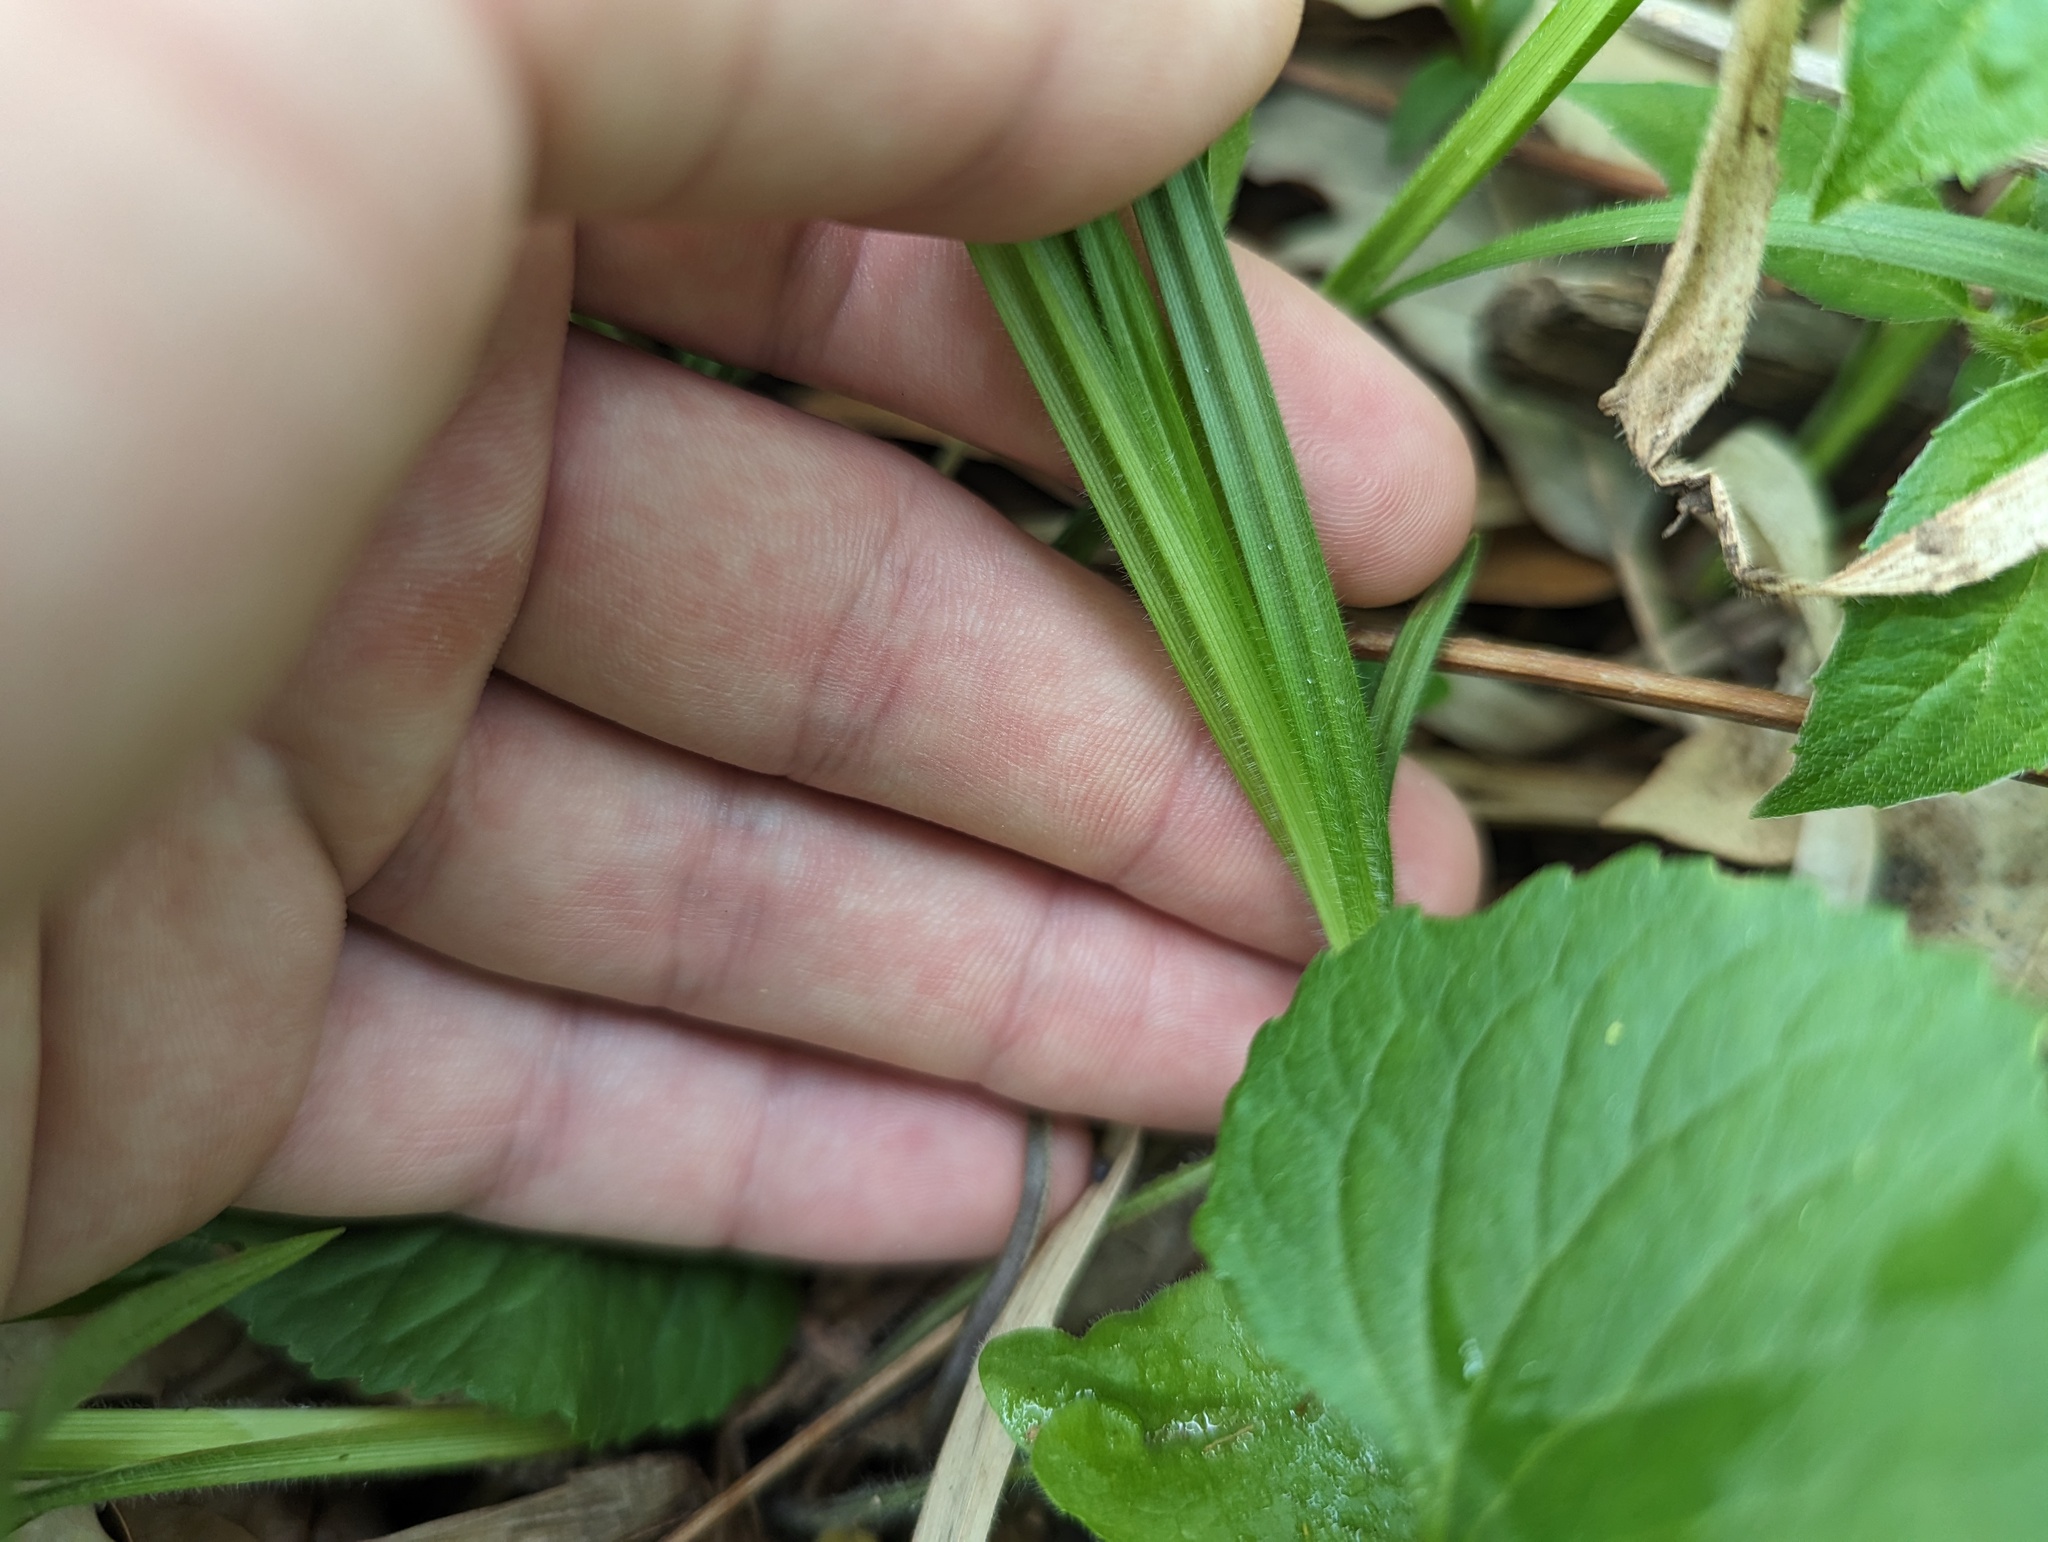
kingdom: Plantae
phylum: Tracheophyta
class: Liliopsida
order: Poales
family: Cyperaceae
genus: Carex
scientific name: Carex hirtifolia
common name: Hairy sedge
